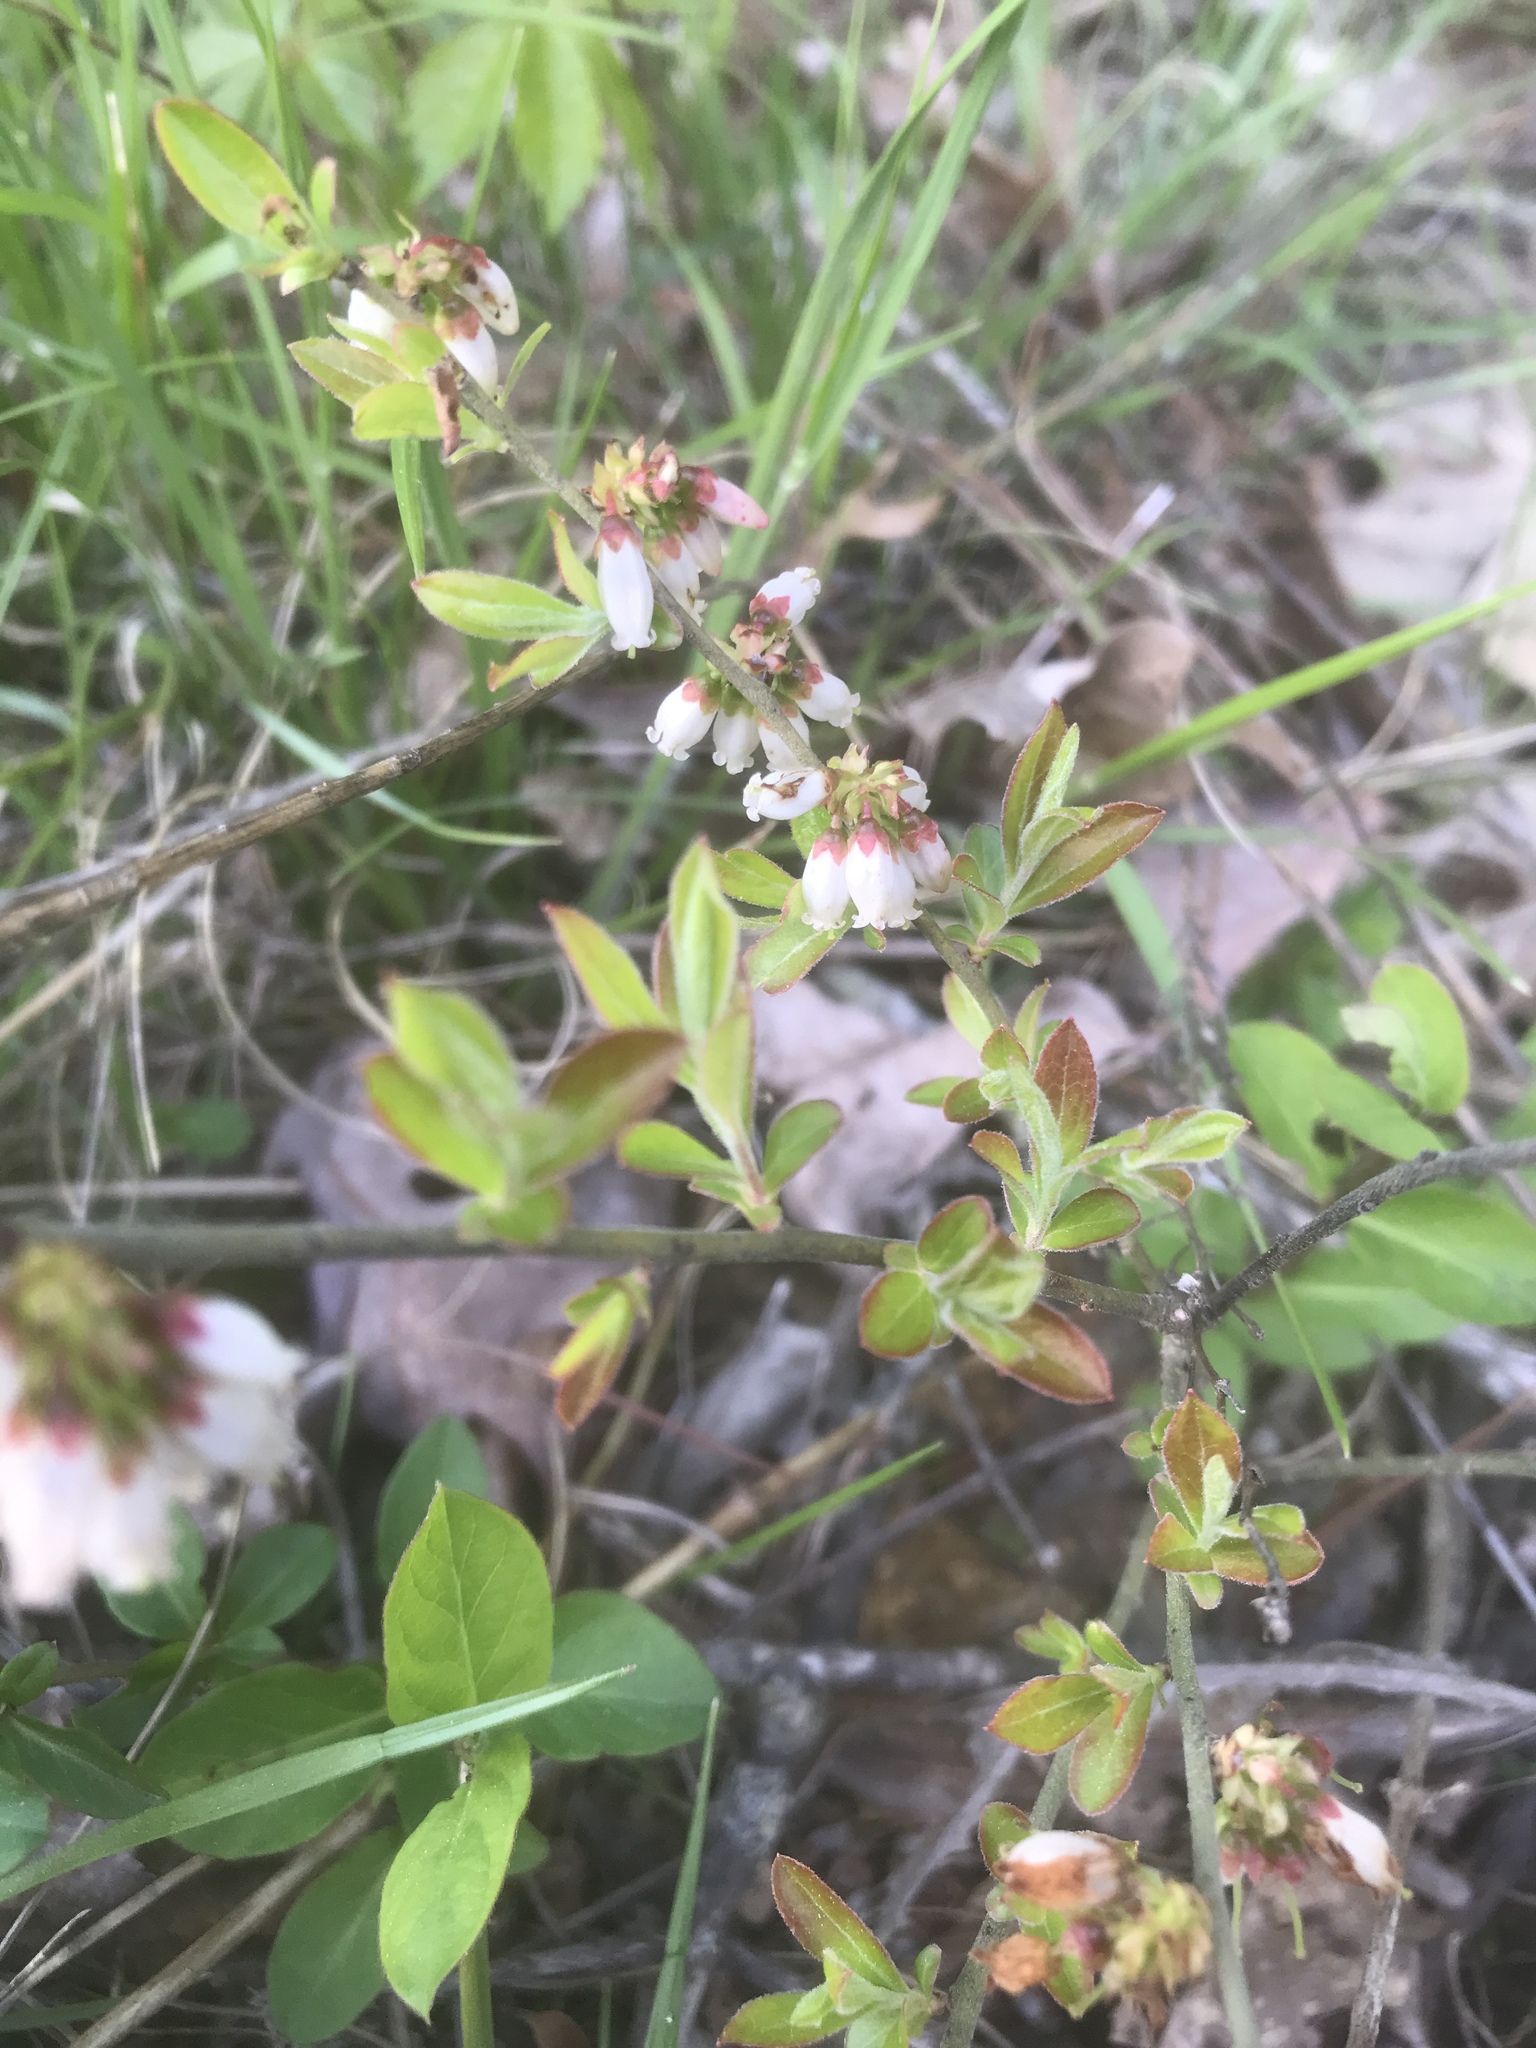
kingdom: Plantae
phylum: Tracheophyta
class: Magnoliopsida
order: Ericales
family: Ericaceae
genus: Vaccinium
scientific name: Vaccinium tenellum
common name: Southern blueberry
